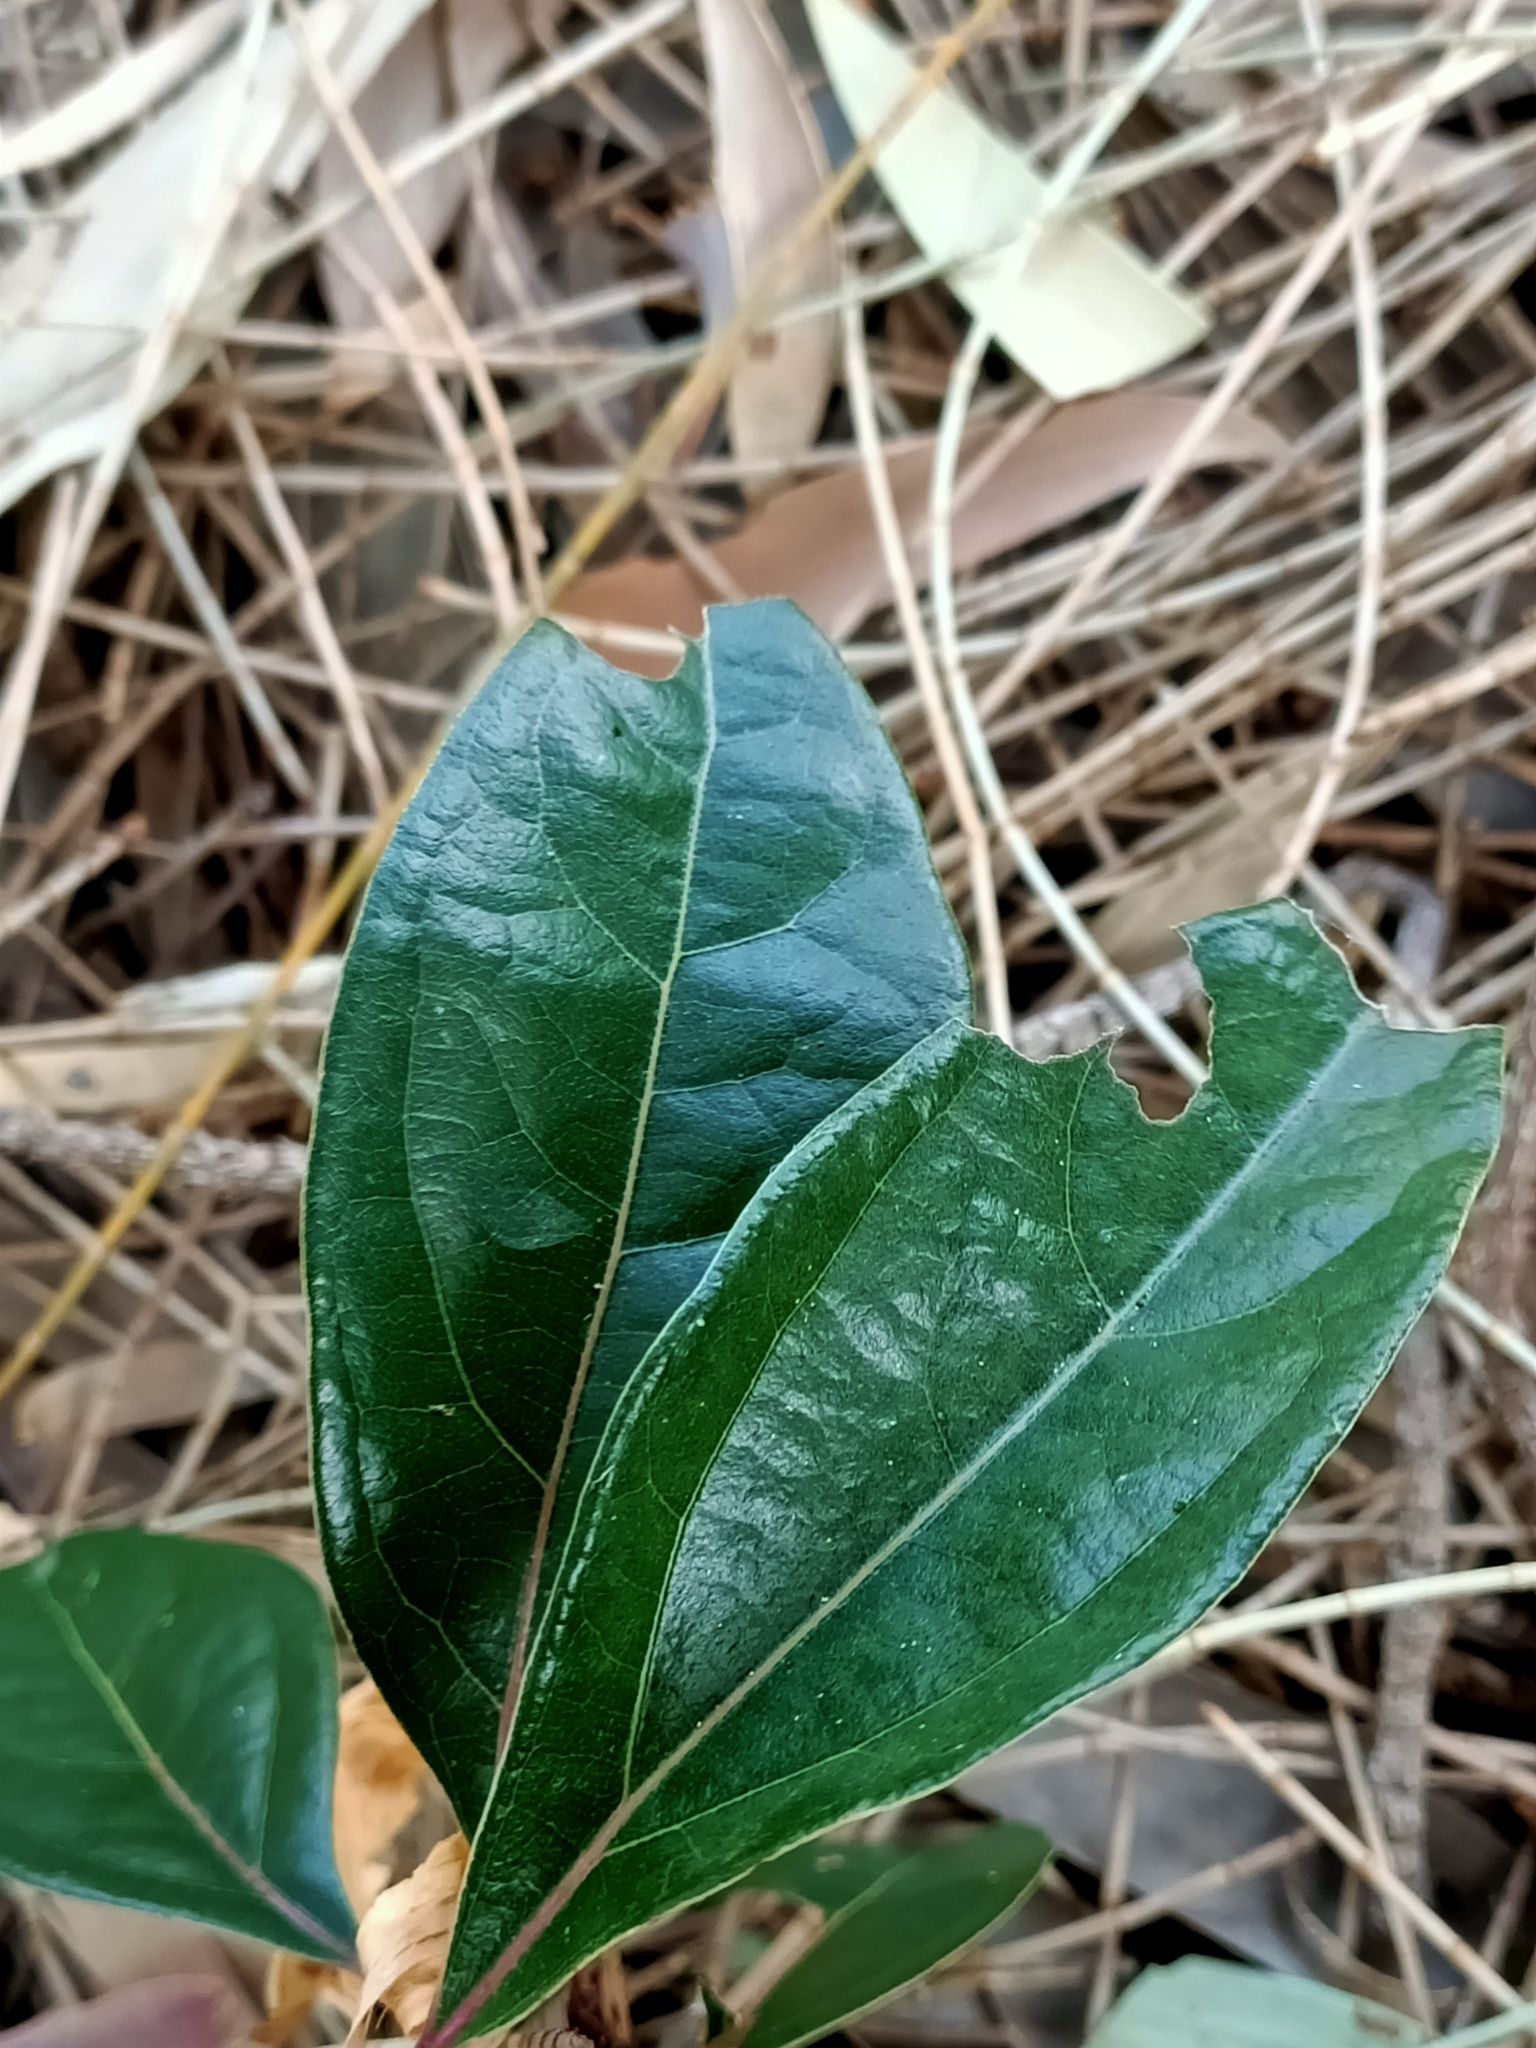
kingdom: Plantae
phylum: Tracheophyta
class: Magnoliopsida
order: Laurales
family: Lauraceae
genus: Cinnamomum
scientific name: Cinnamomum camphora
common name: Camphortree
